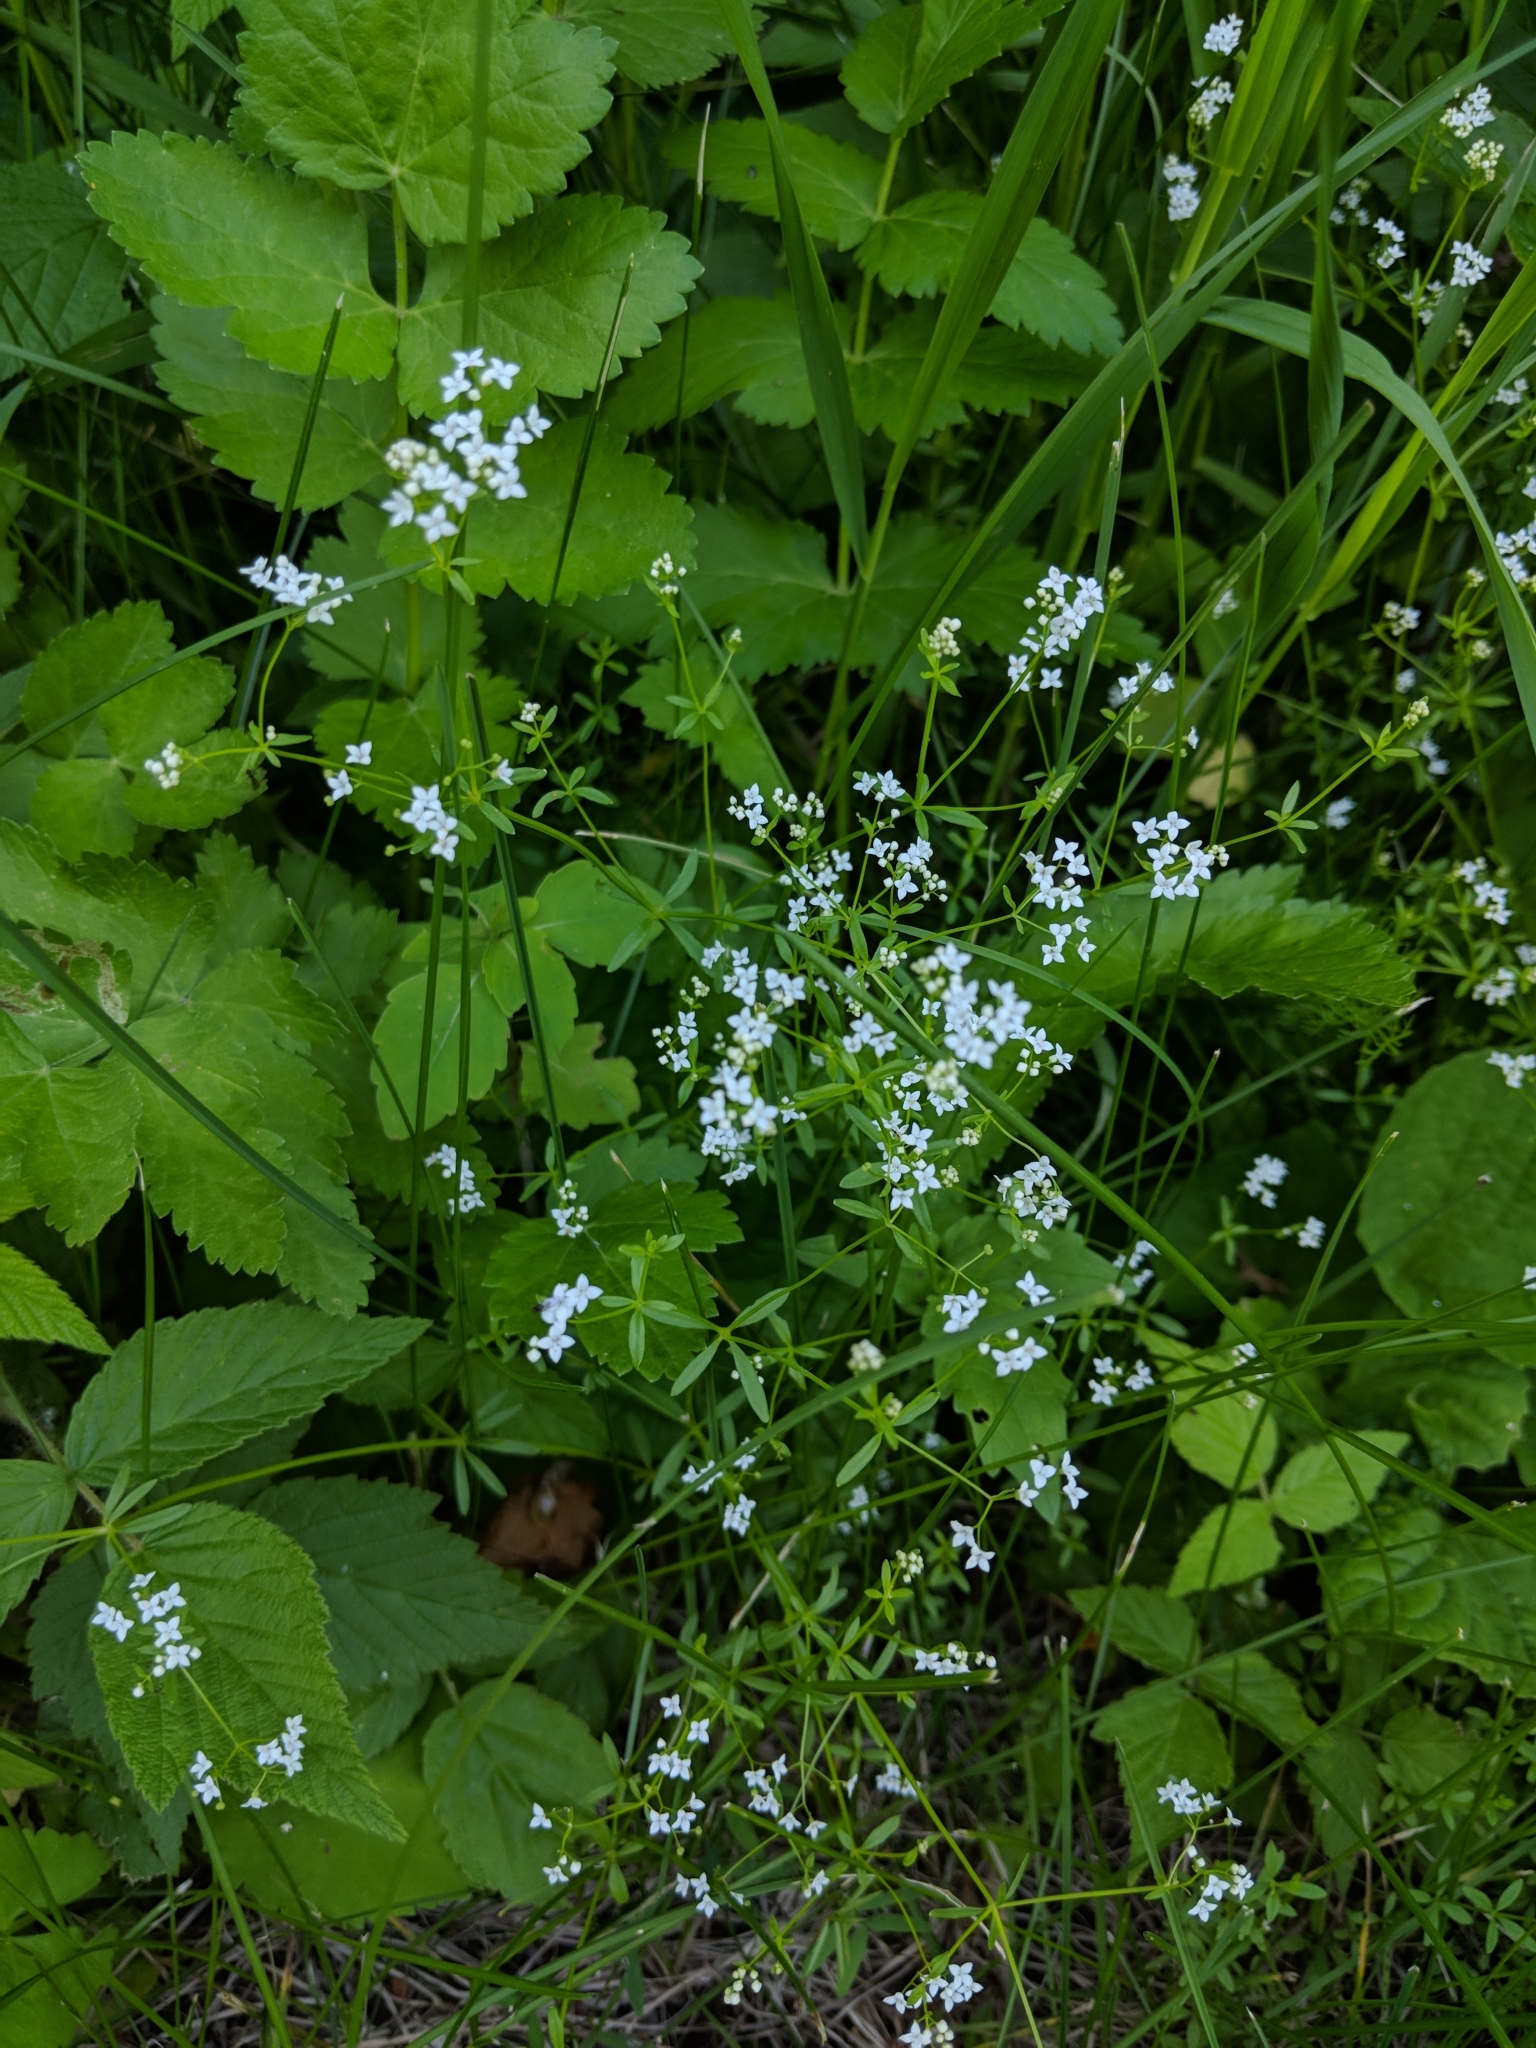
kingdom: Plantae
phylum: Tracheophyta
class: Magnoliopsida
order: Gentianales
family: Rubiaceae
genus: Galium
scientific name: Galium palustre
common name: Common marsh-bedstraw
